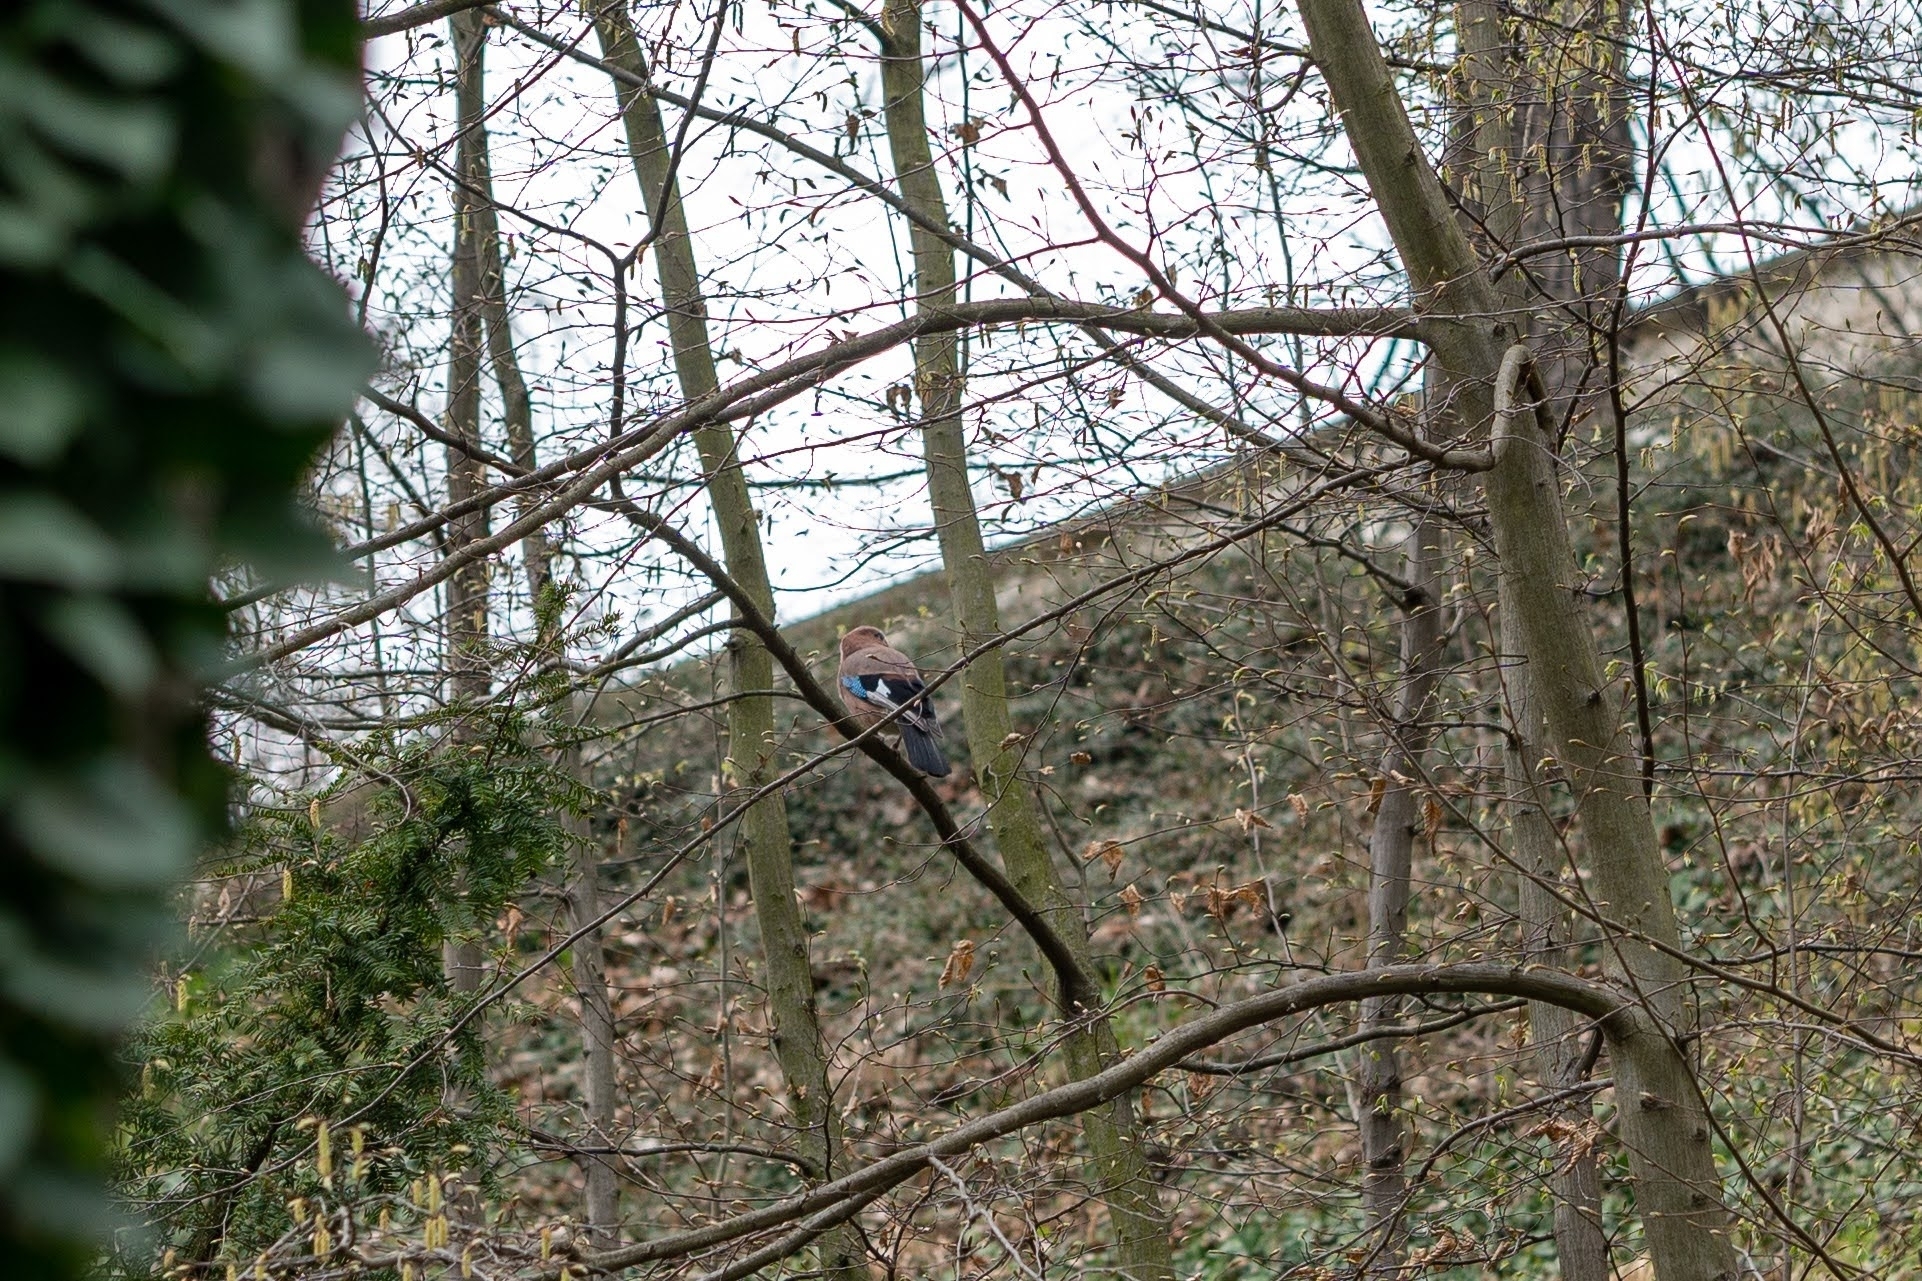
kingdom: Animalia
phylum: Chordata
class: Aves
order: Passeriformes
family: Corvidae
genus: Garrulus
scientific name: Garrulus glandarius
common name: Eurasian jay
